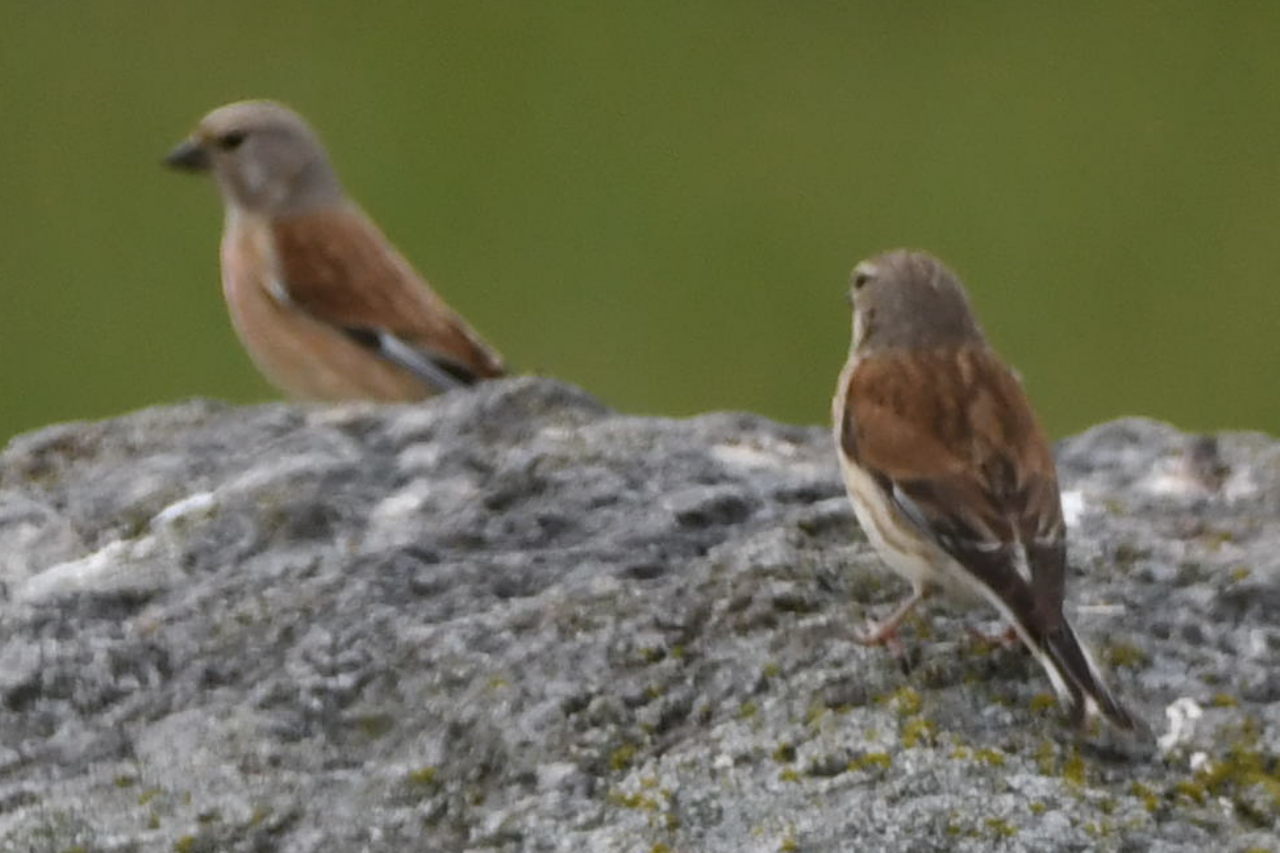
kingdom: Animalia
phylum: Chordata
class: Aves
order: Passeriformes
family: Fringillidae
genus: Linaria
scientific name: Linaria cannabina
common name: Common linnet
